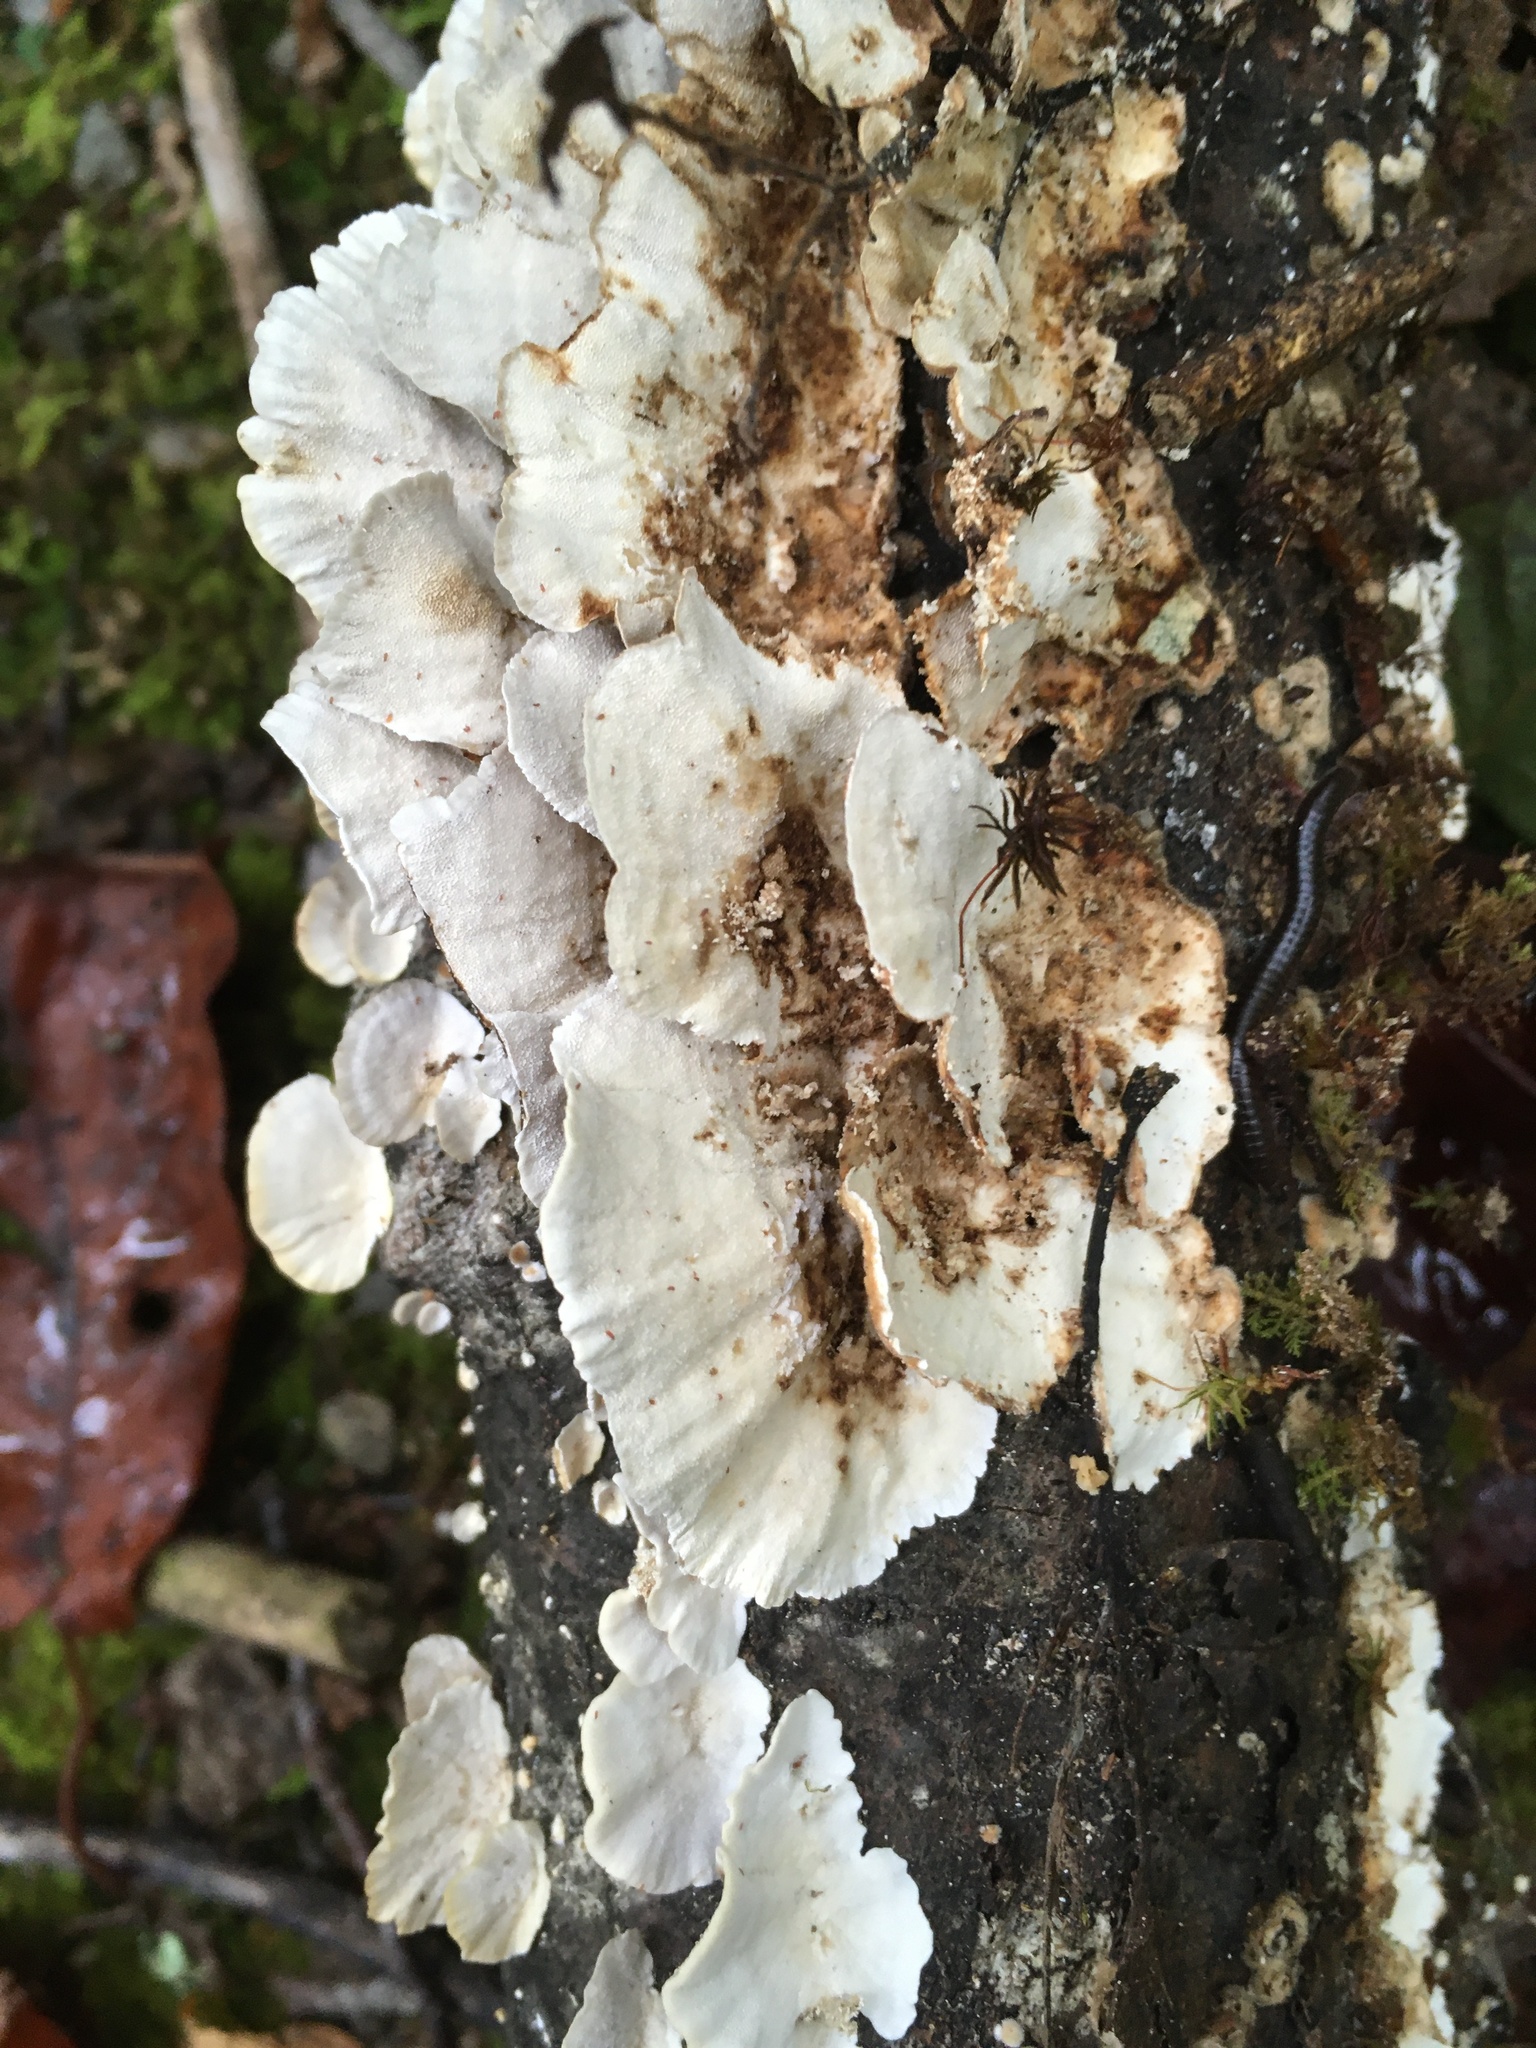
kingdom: Fungi
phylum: Basidiomycota
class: Agaricomycetes
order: Polyporales
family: Polyporaceae
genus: Trametes
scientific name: Trametes versicolor
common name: Turkeytail
